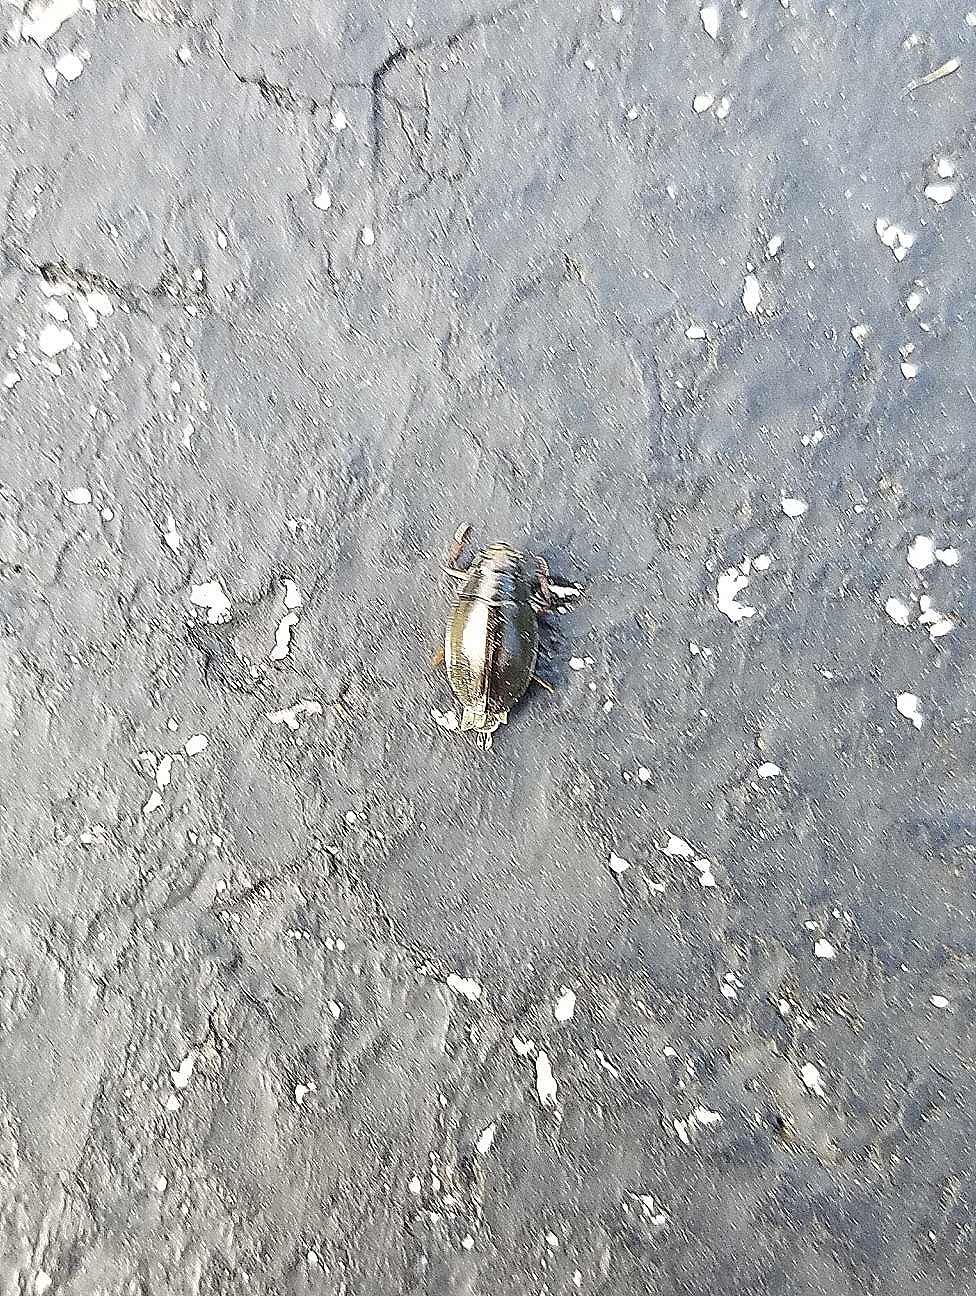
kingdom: Animalia
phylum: Arthropoda
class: Insecta
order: Coleoptera
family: Gyrinidae
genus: Dineutus
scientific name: Dineutus
